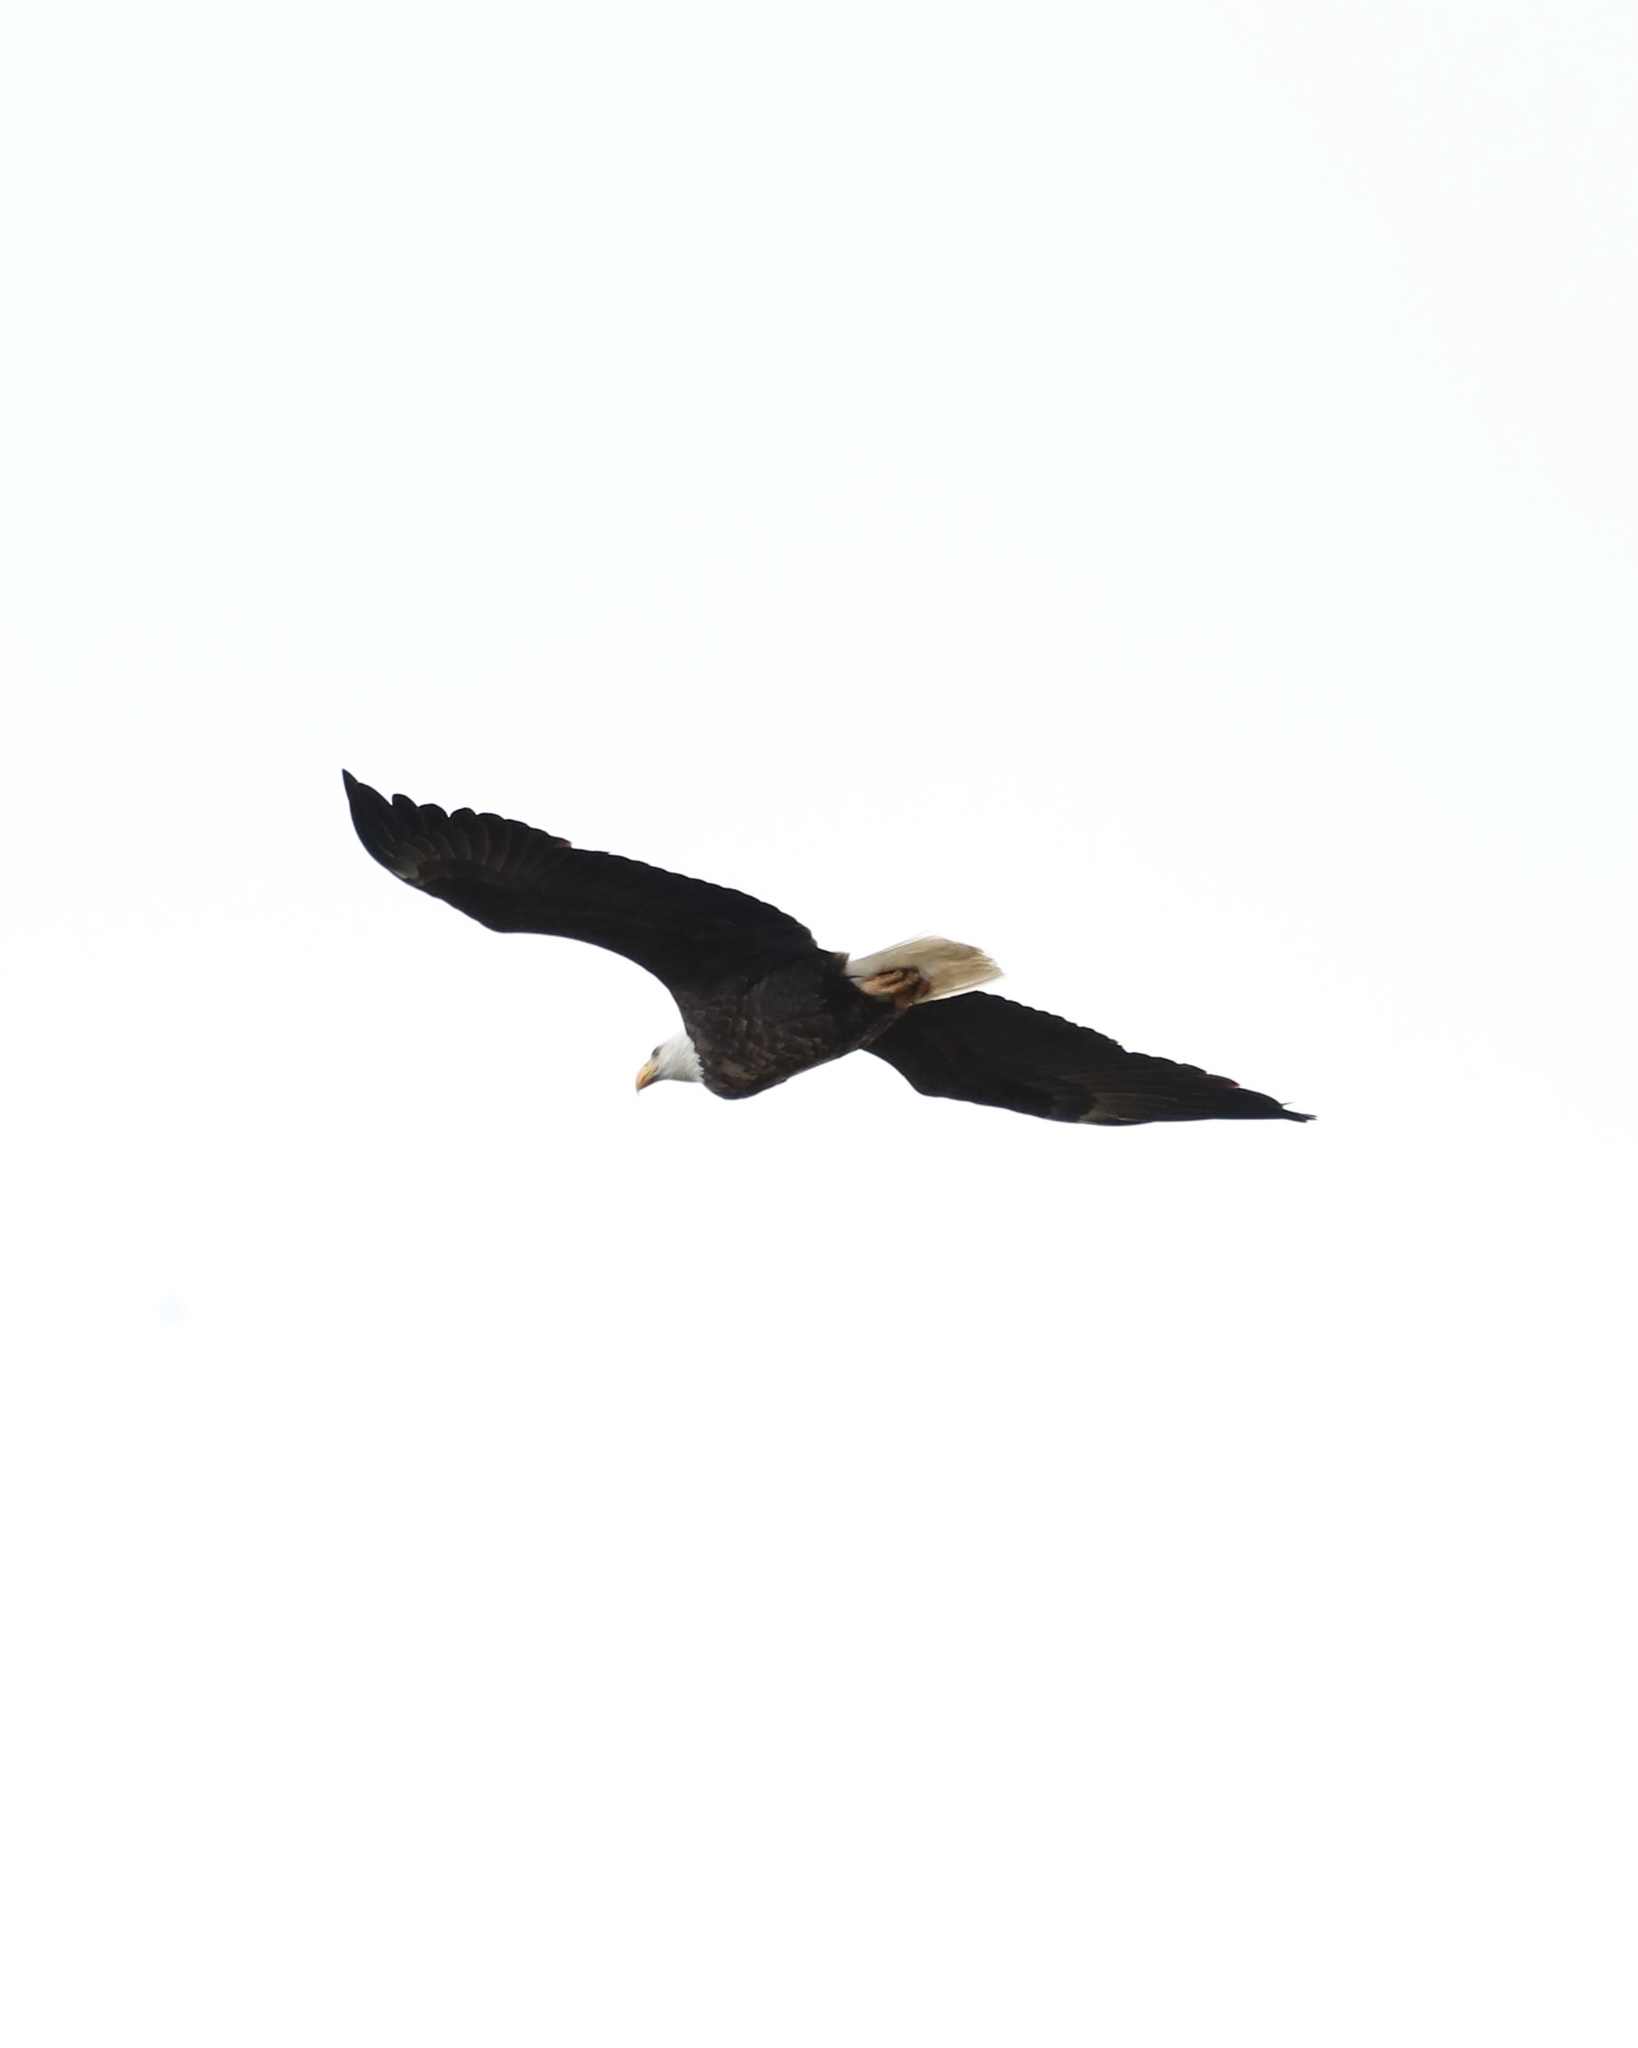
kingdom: Animalia
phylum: Chordata
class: Aves
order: Accipitriformes
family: Accipitridae
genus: Haliaeetus
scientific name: Haliaeetus leucocephalus
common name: Bald eagle
